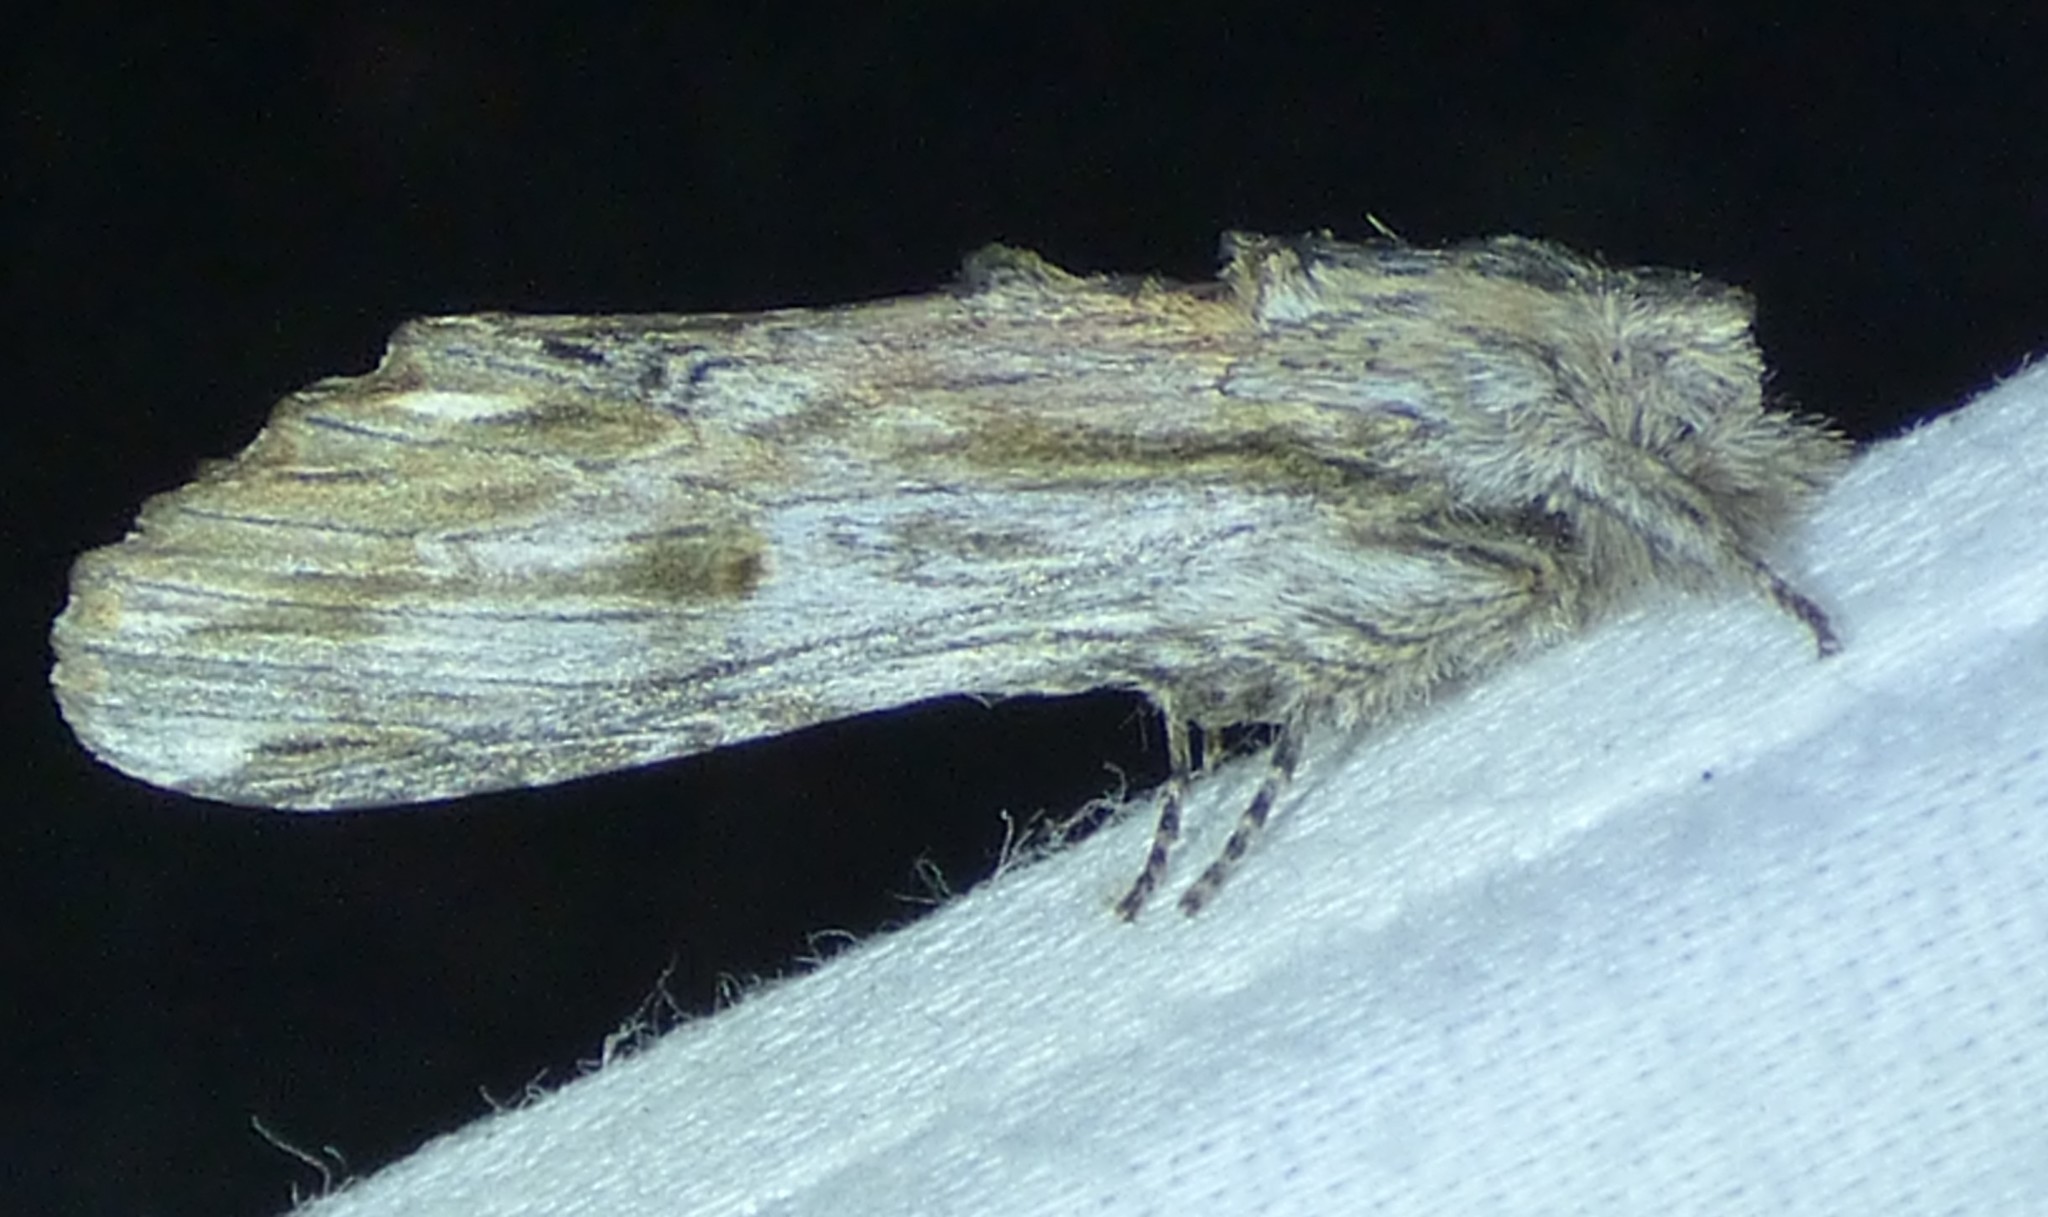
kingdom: Animalia
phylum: Arthropoda
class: Insecta
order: Lepidoptera
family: Notodontidae
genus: Oligocentria
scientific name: Oligocentria Ianassa lignicolor
